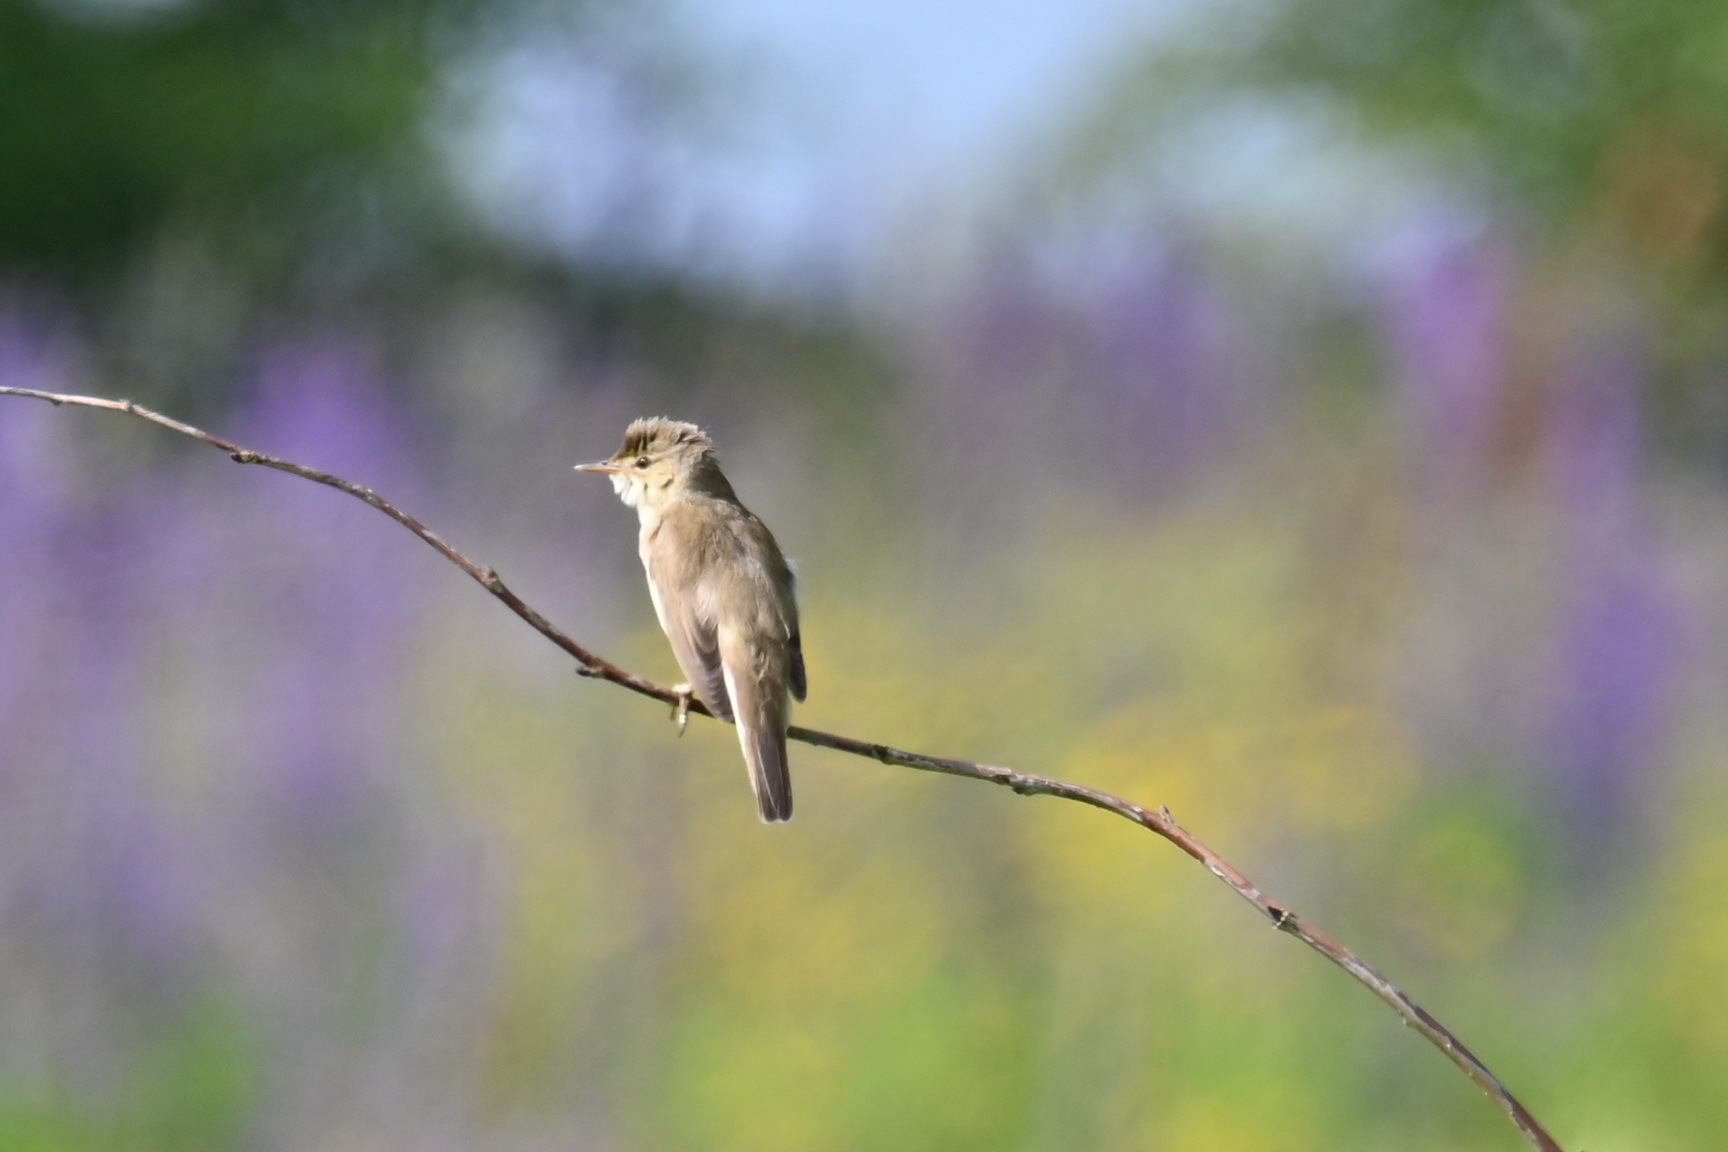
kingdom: Animalia
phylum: Chordata
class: Aves
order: Passeriformes
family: Acrocephalidae
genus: Acrocephalus
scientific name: Acrocephalus palustris
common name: Marsh warbler
